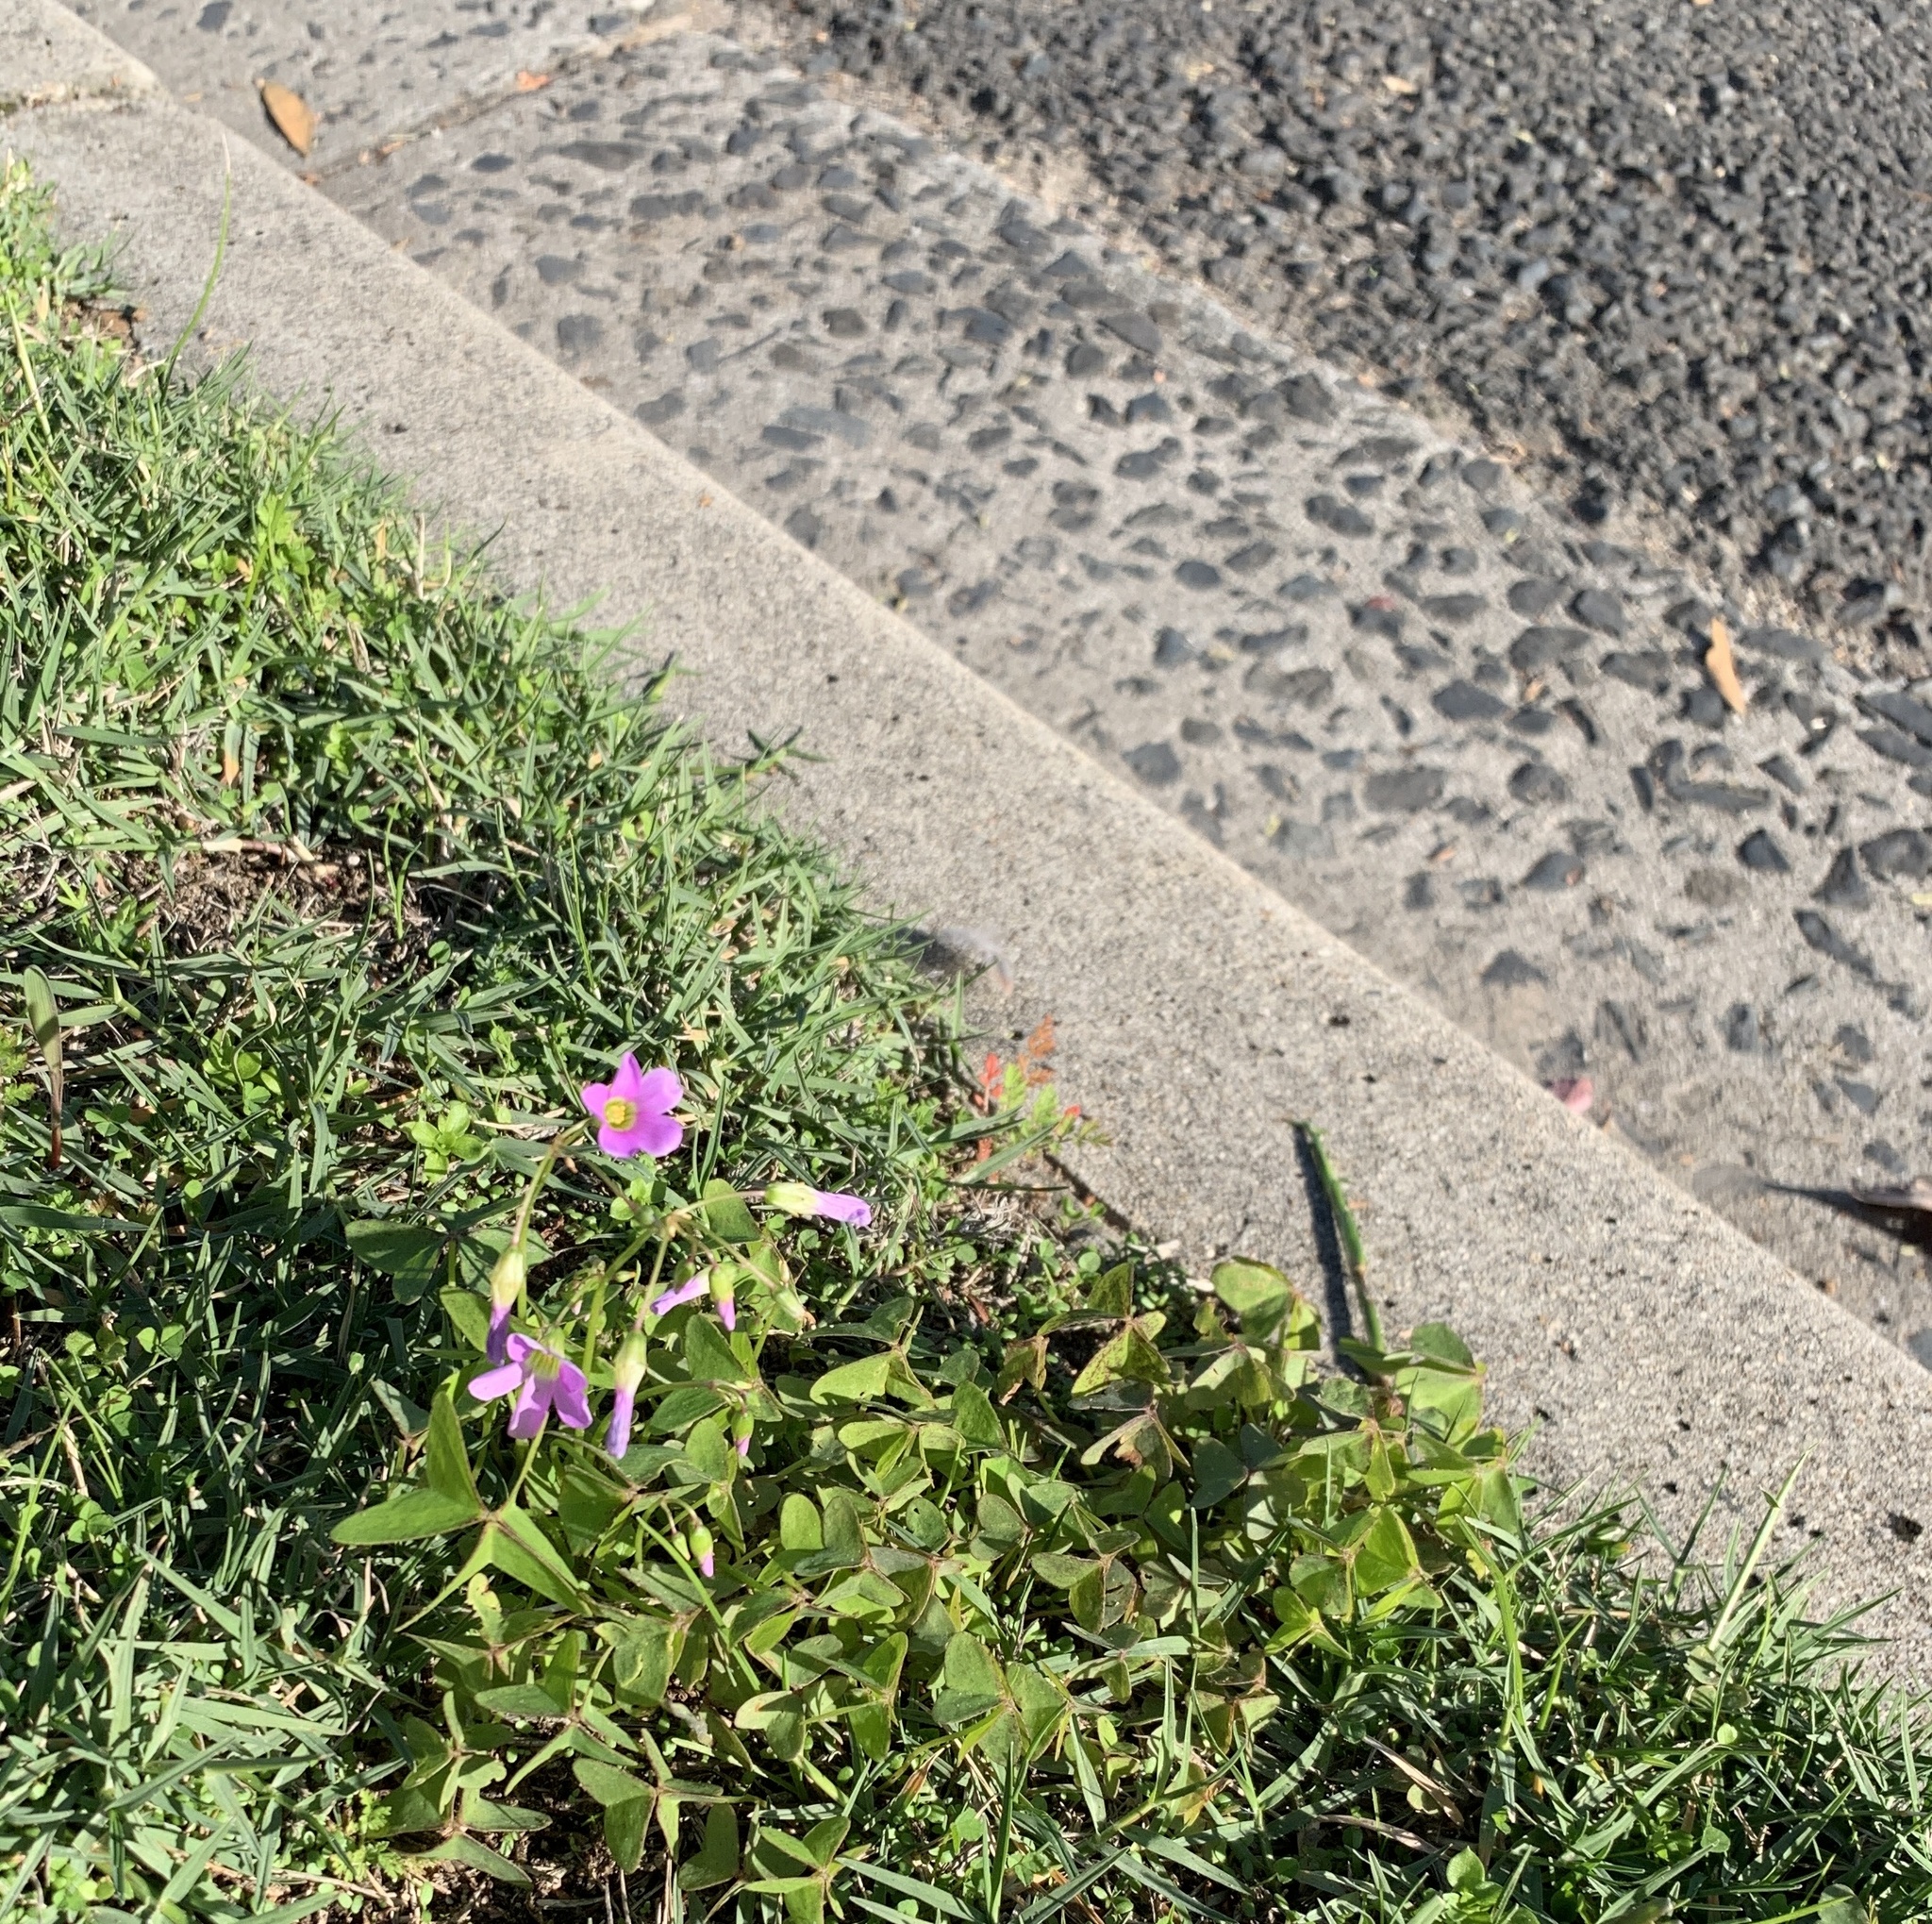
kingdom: Plantae
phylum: Tracheophyta
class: Magnoliopsida
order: Oxalidales
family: Oxalidaceae
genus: Oxalis
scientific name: Oxalis latifolia
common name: Garden pink-sorrel
